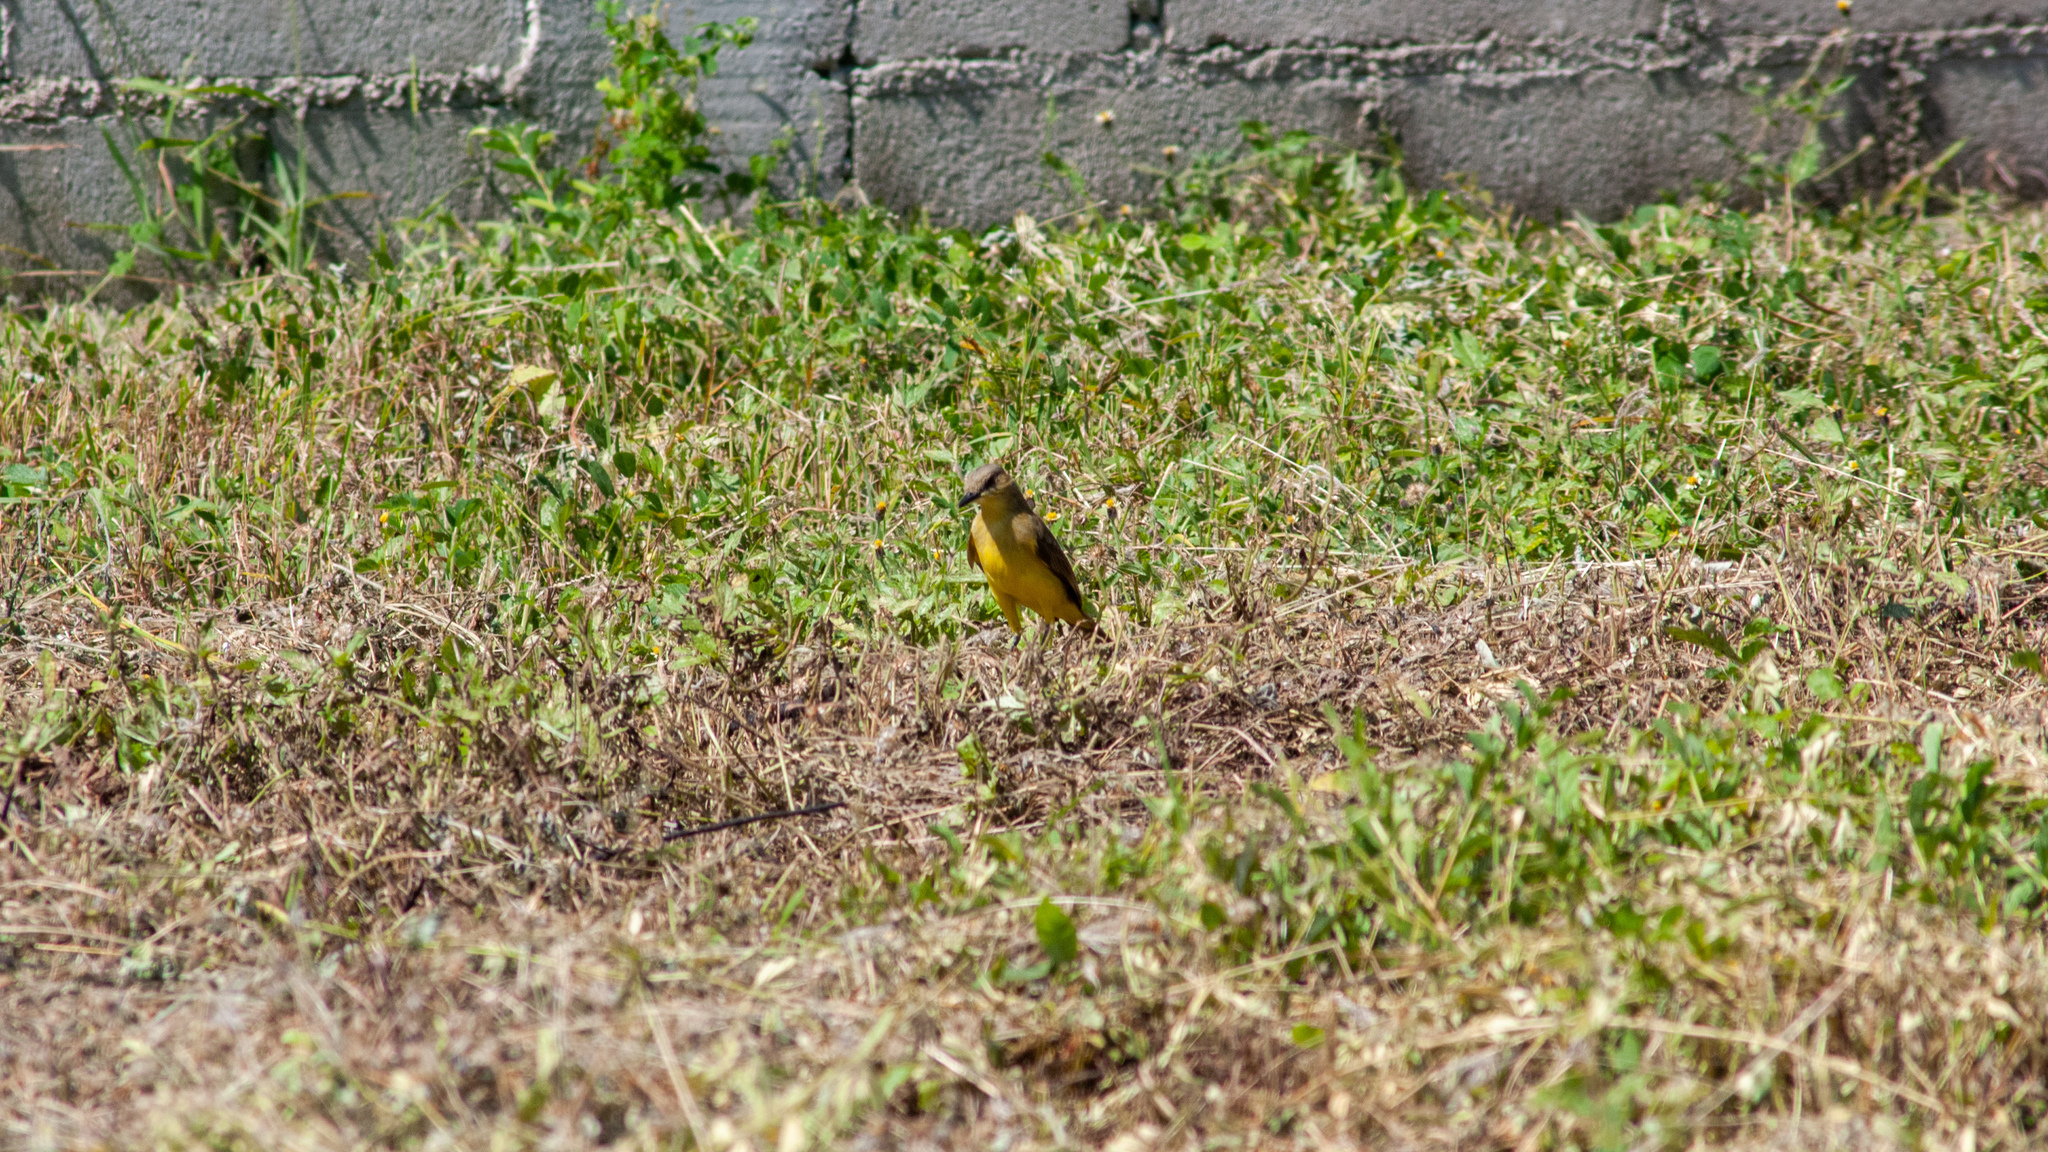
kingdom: Animalia
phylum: Chordata
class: Aves
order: Passeriformes
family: Tyrannidae
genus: Machetornis
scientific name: Machetornis rixosa
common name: Cattle tyrant
